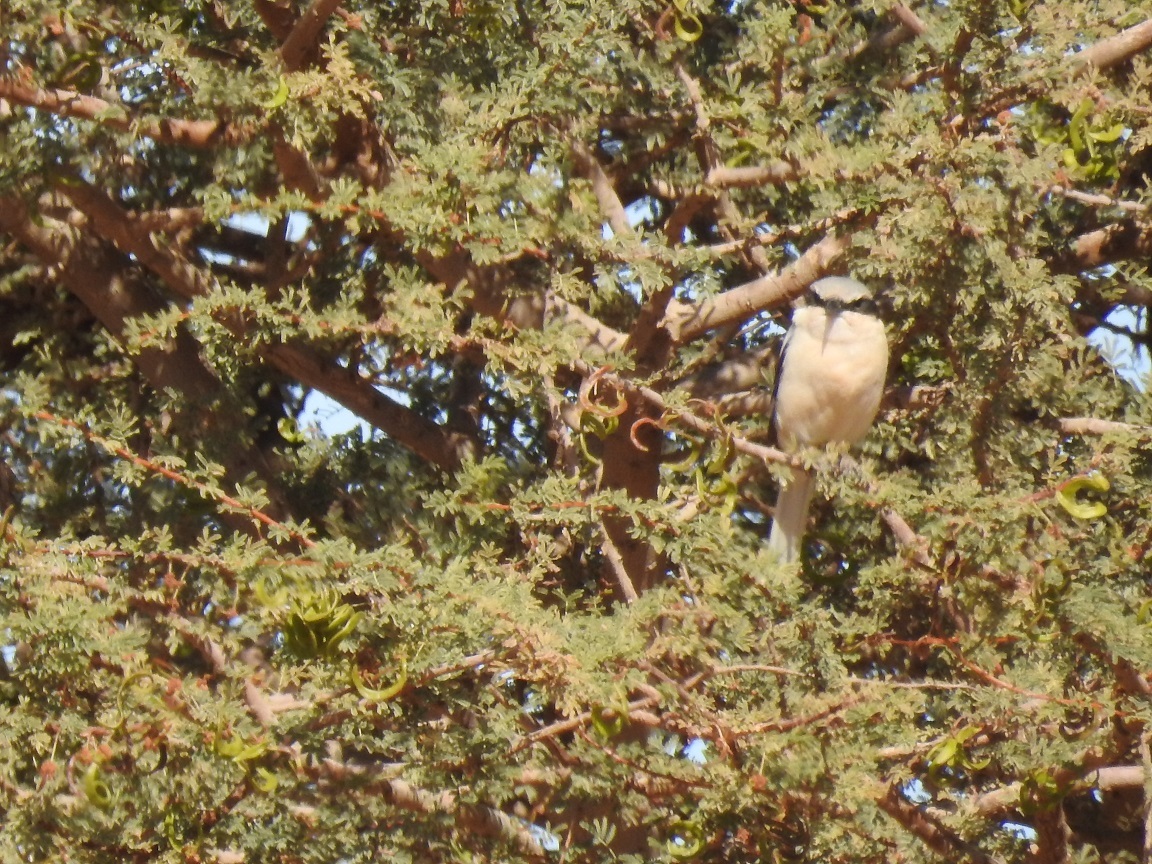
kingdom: Animalia
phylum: Chordata
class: Aves
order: Passeriformes
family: Laniidae
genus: Lanius
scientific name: Lanius excubitor
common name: Great grey shrike
